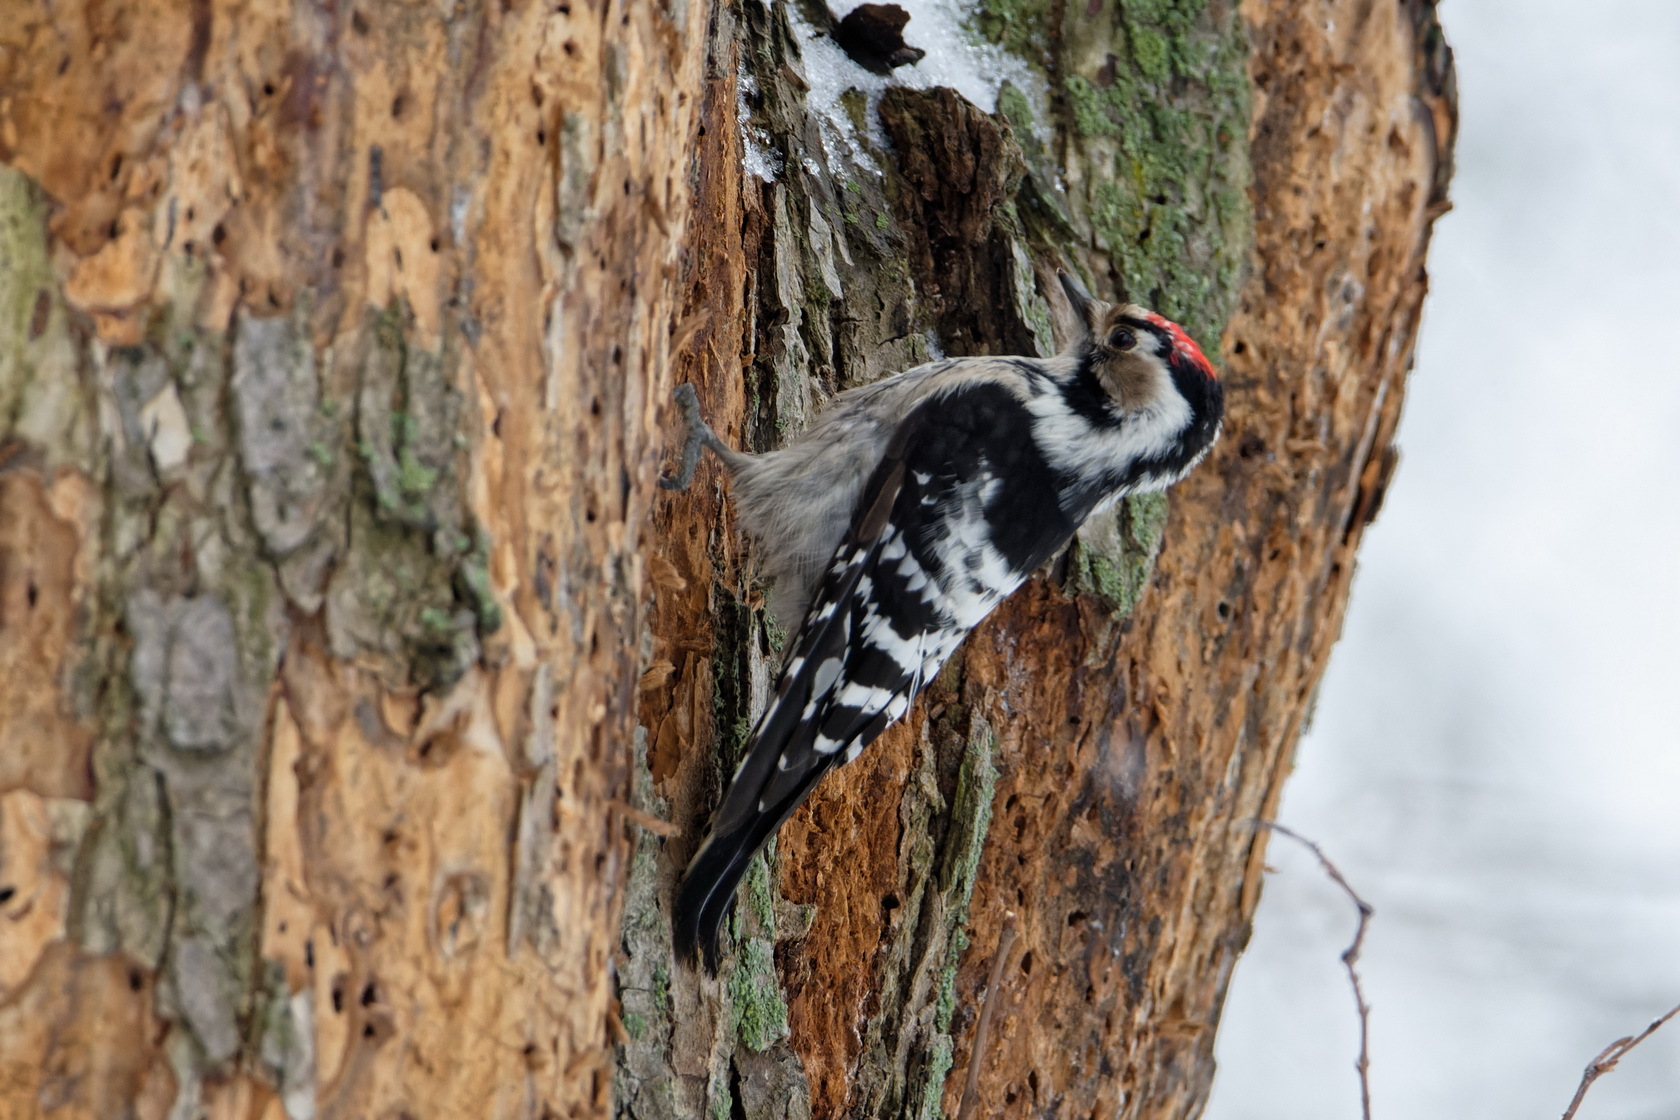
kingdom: Animalia
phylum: Chordata
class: Aves
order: Piciformes
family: Picidae
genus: Dryobates
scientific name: Dryobates minor
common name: Lesser spotted woodpecker
